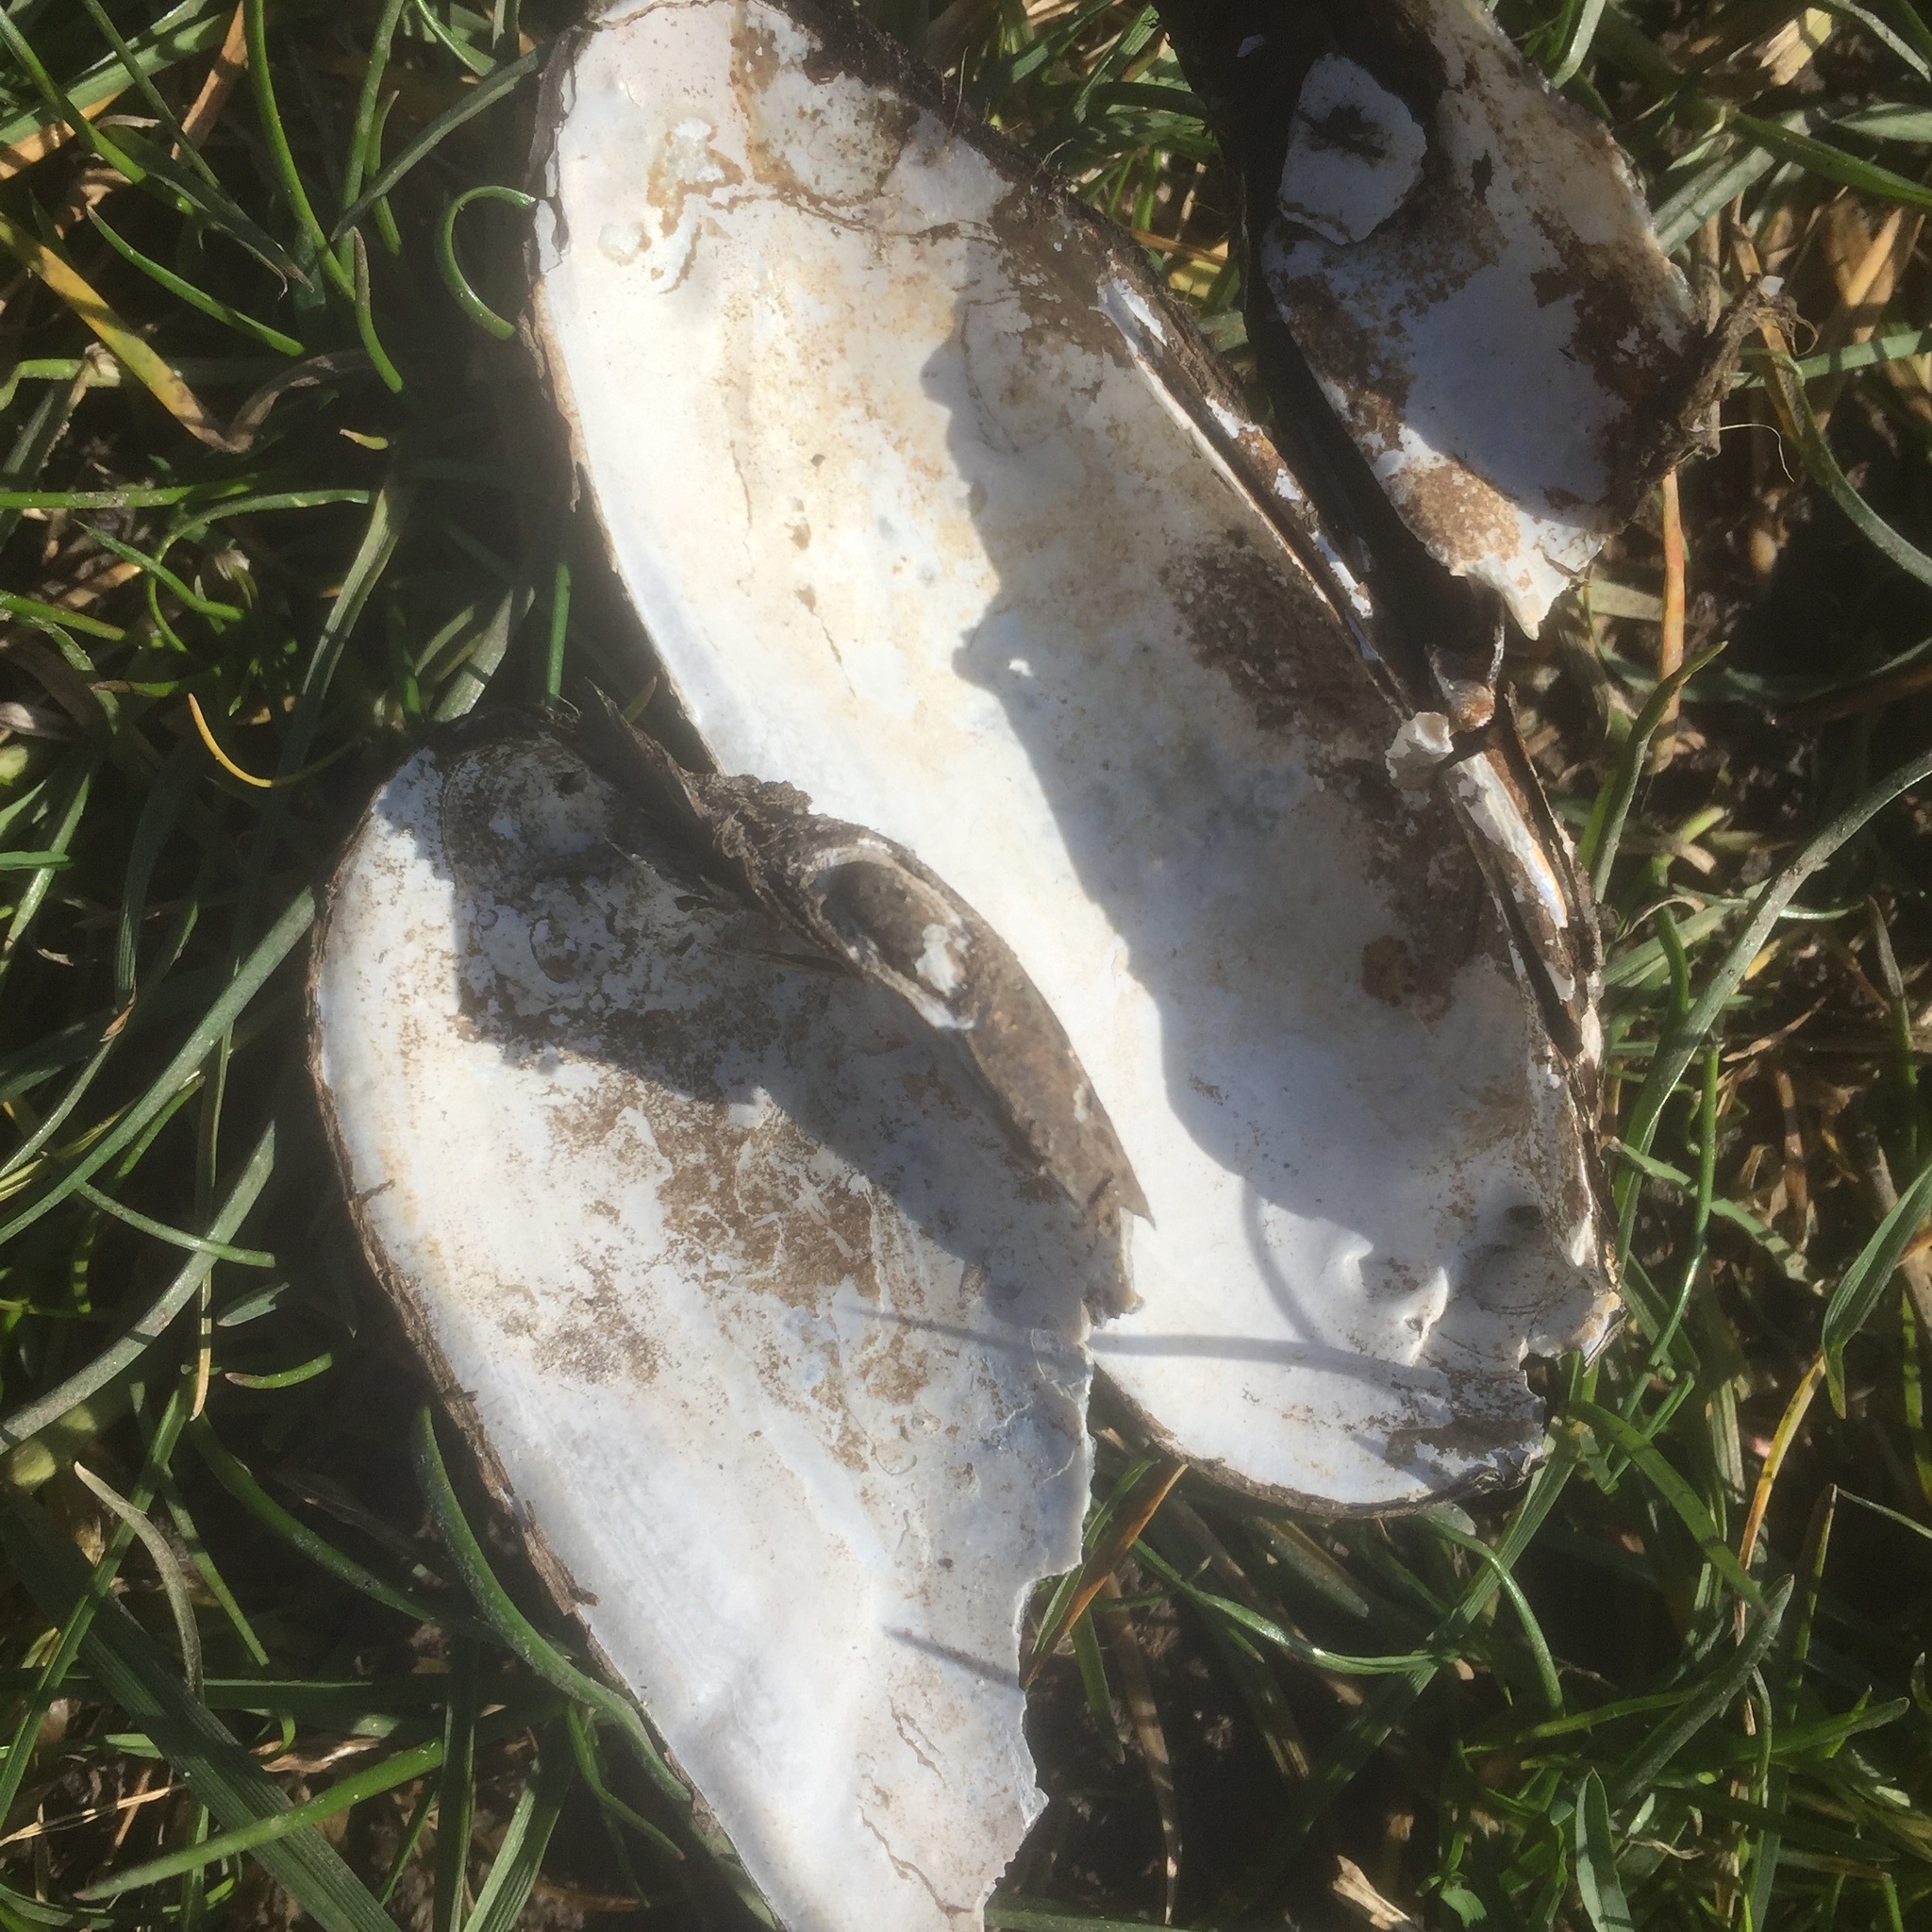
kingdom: Animalia
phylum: Mollusca
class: Bivalvia
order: Unionida
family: Unionidae
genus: Unio
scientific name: Unio pictorum
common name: Painter's mussel
